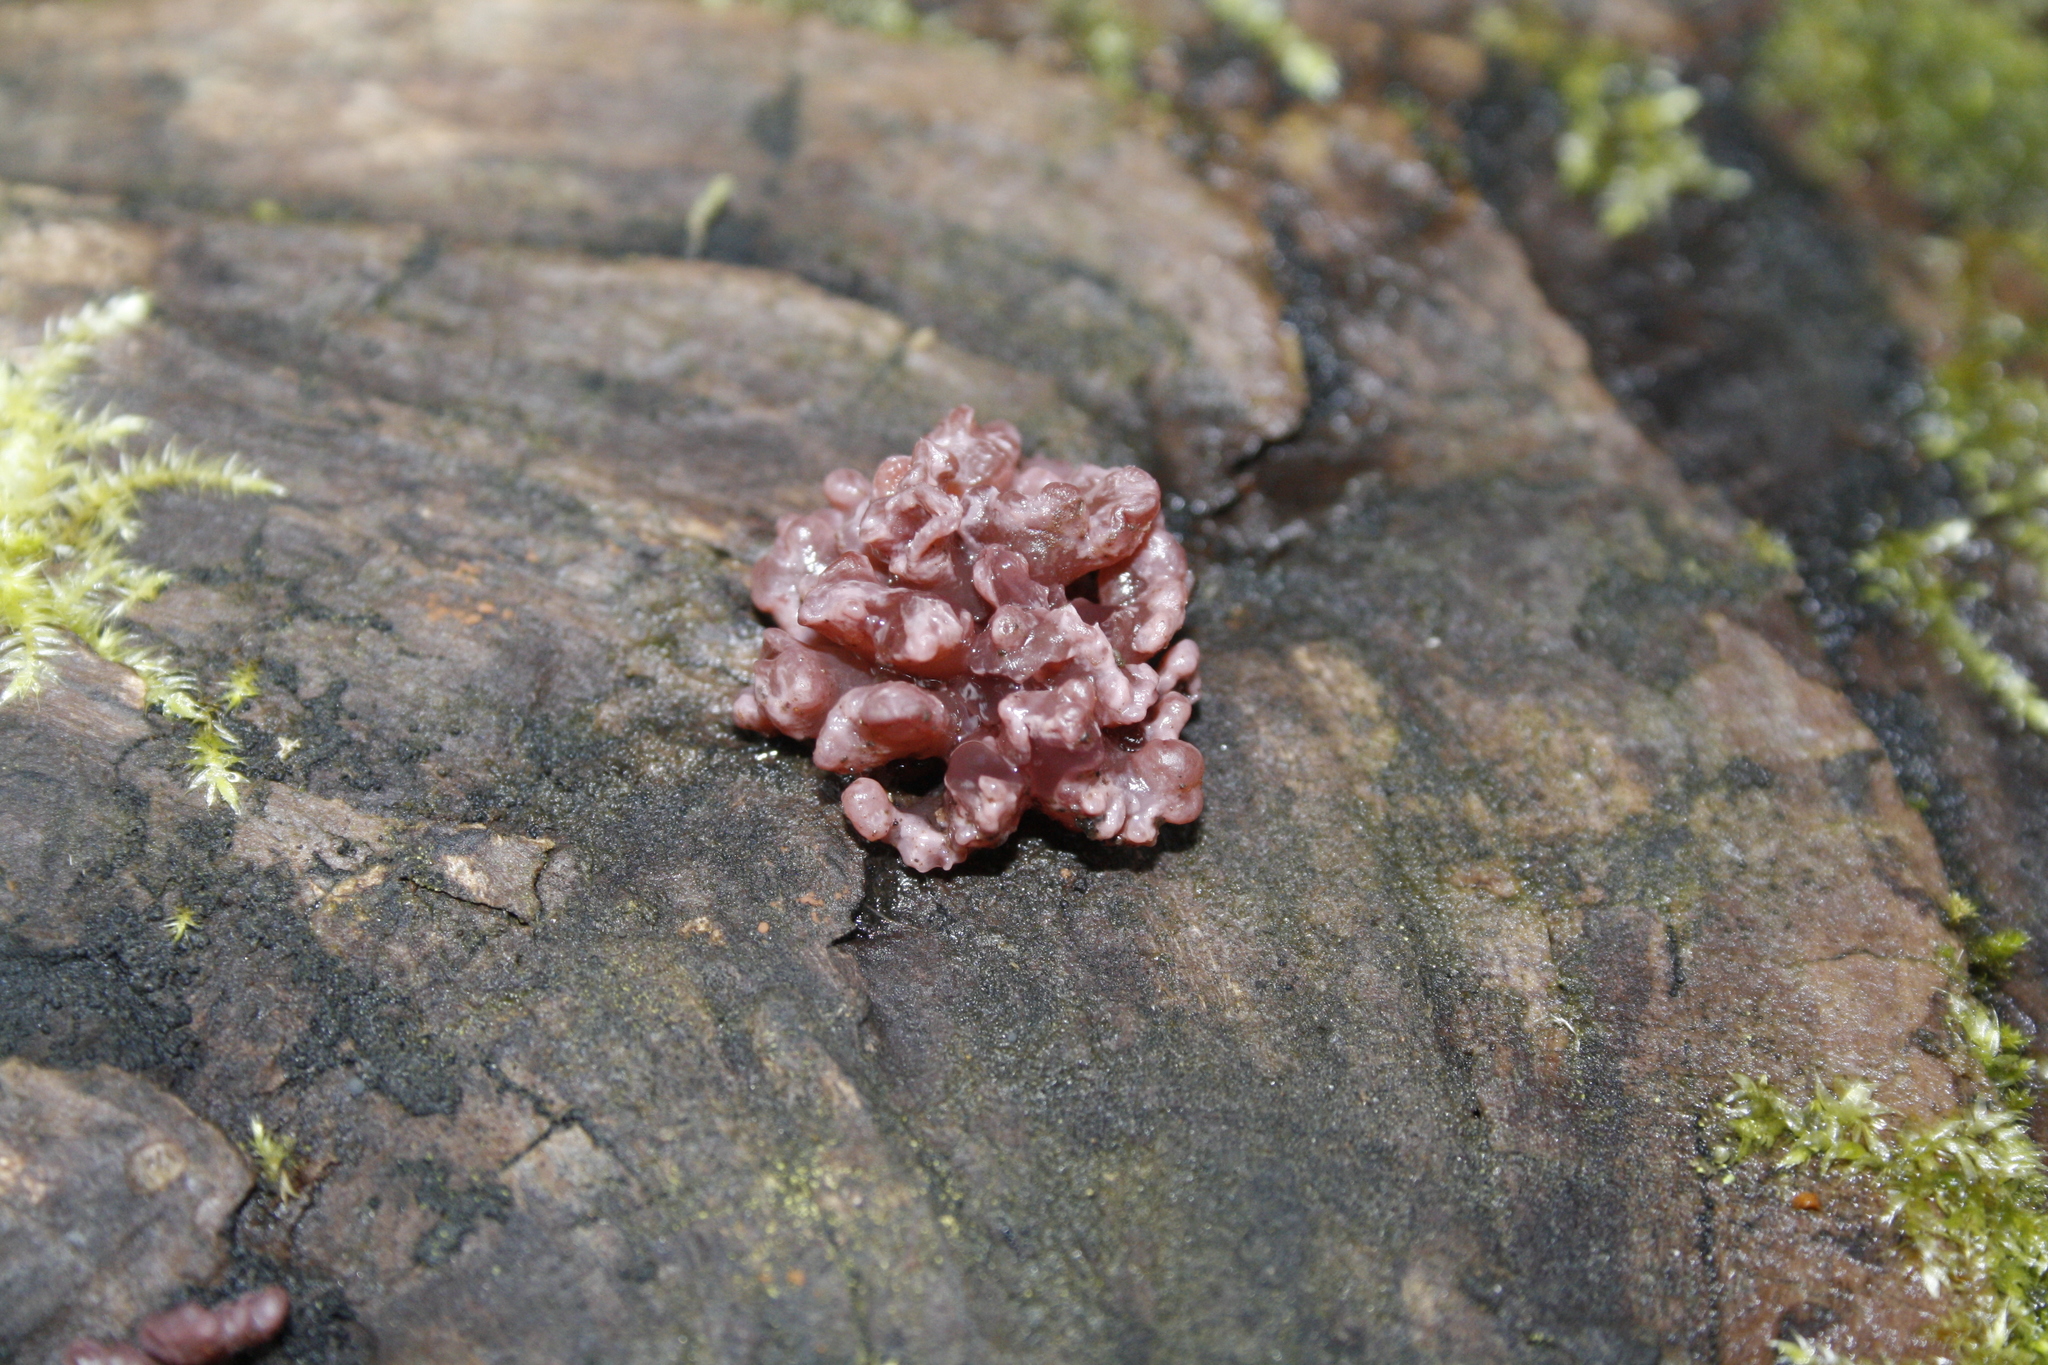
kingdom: Fungi
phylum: Ascomycota
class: Leotiomycetes
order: Helotiales
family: Gelatinodiscaceae
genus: Ascocoryne
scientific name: Ascocoryne sarcoides
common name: Purple jellydisc
